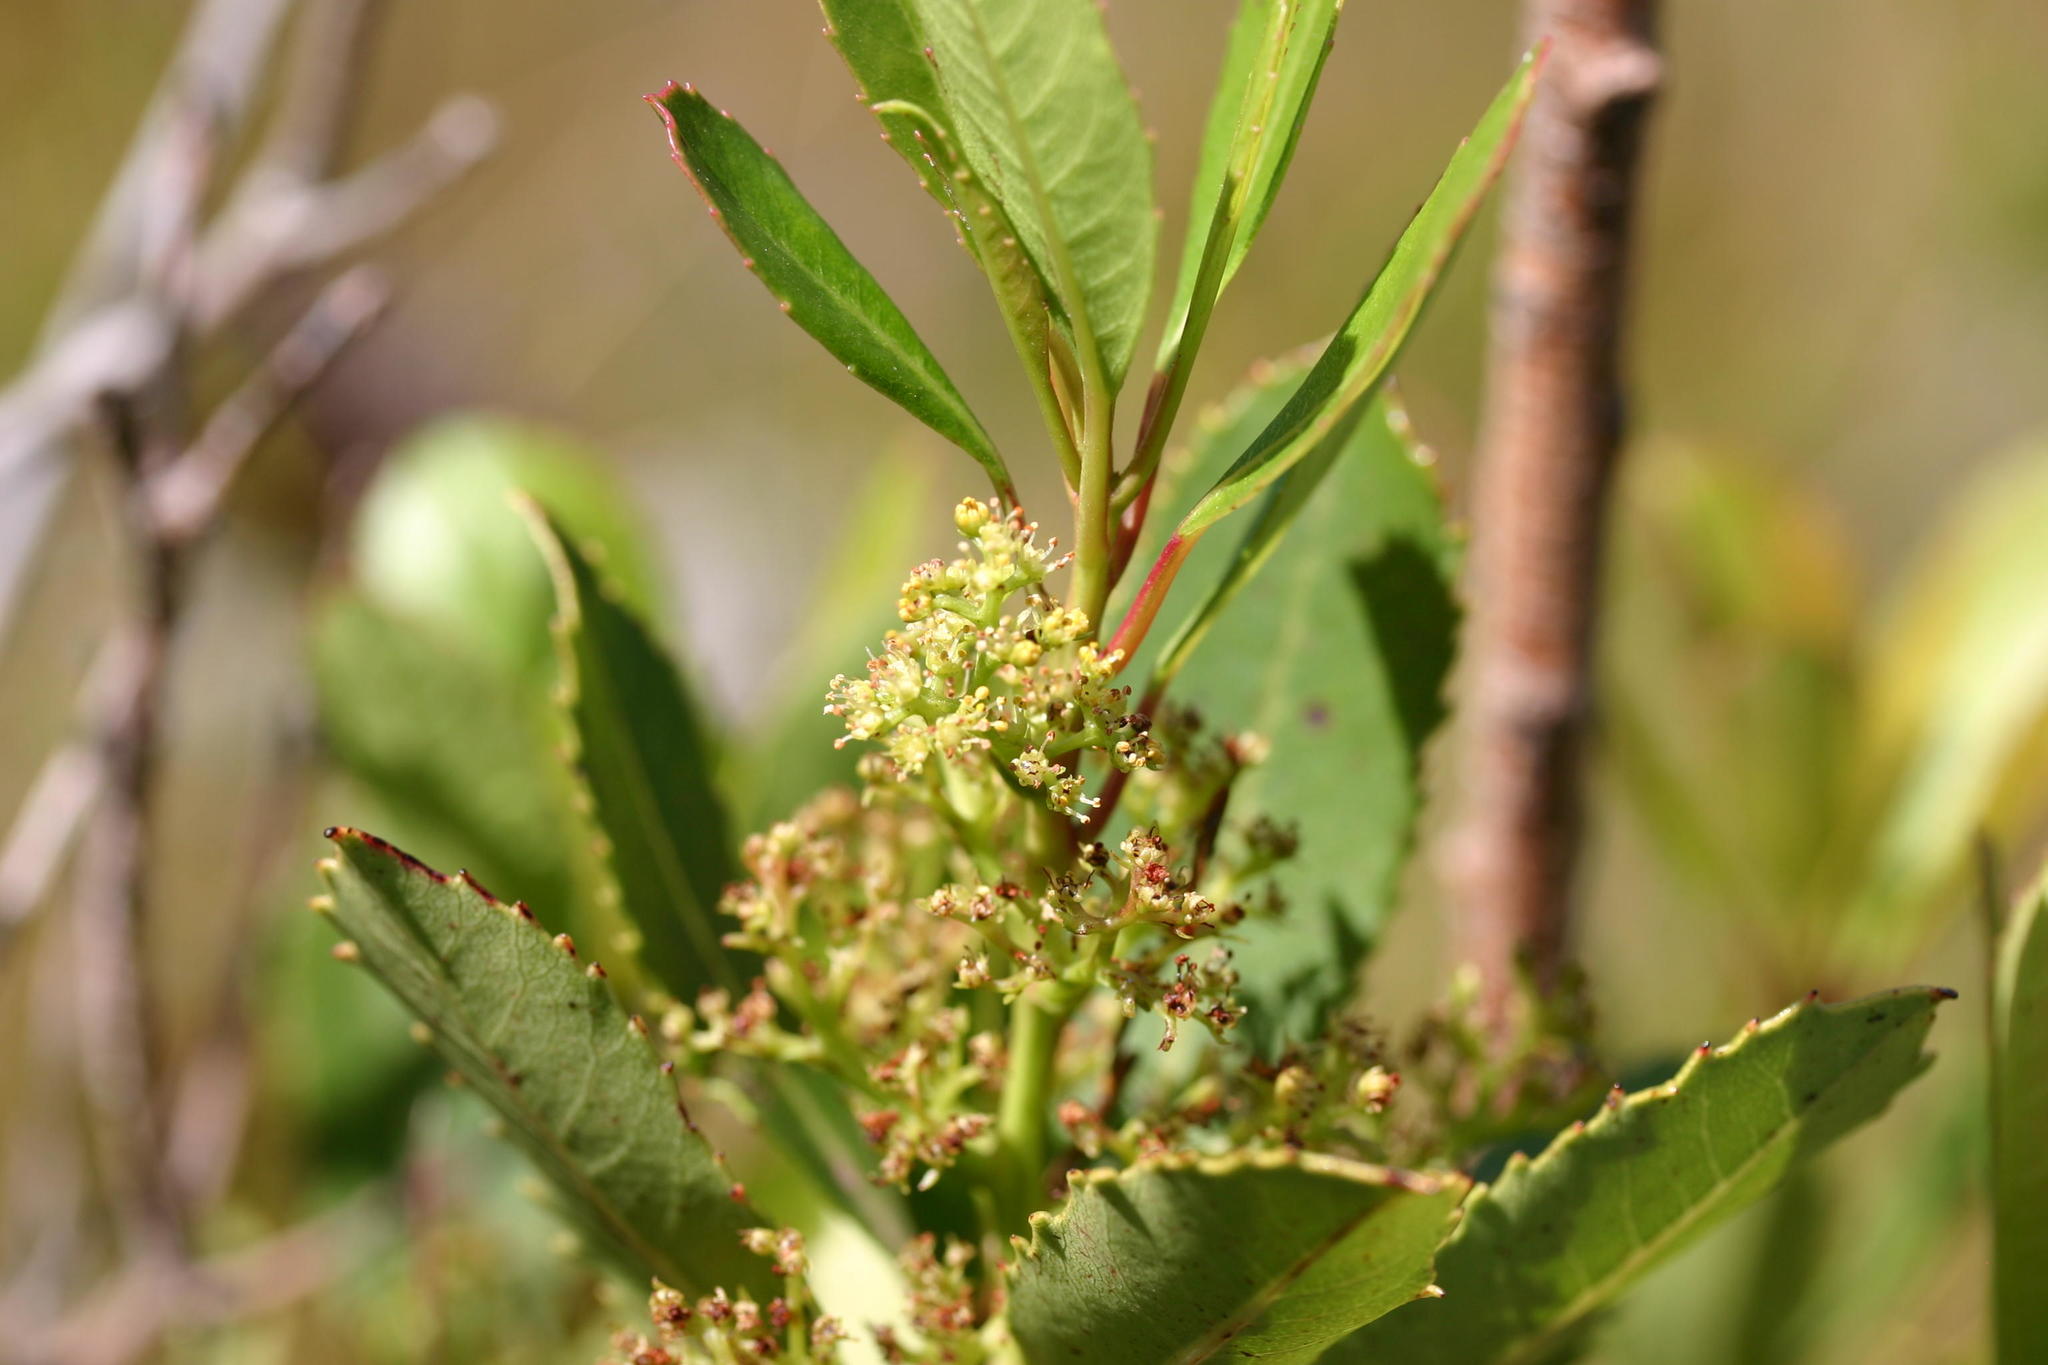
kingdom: Plantae
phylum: Tracheophyta
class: Magnoliopsida
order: Sapindales
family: Anacardiaceae
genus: Laurophyllus
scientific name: Laurophyllus capensis
